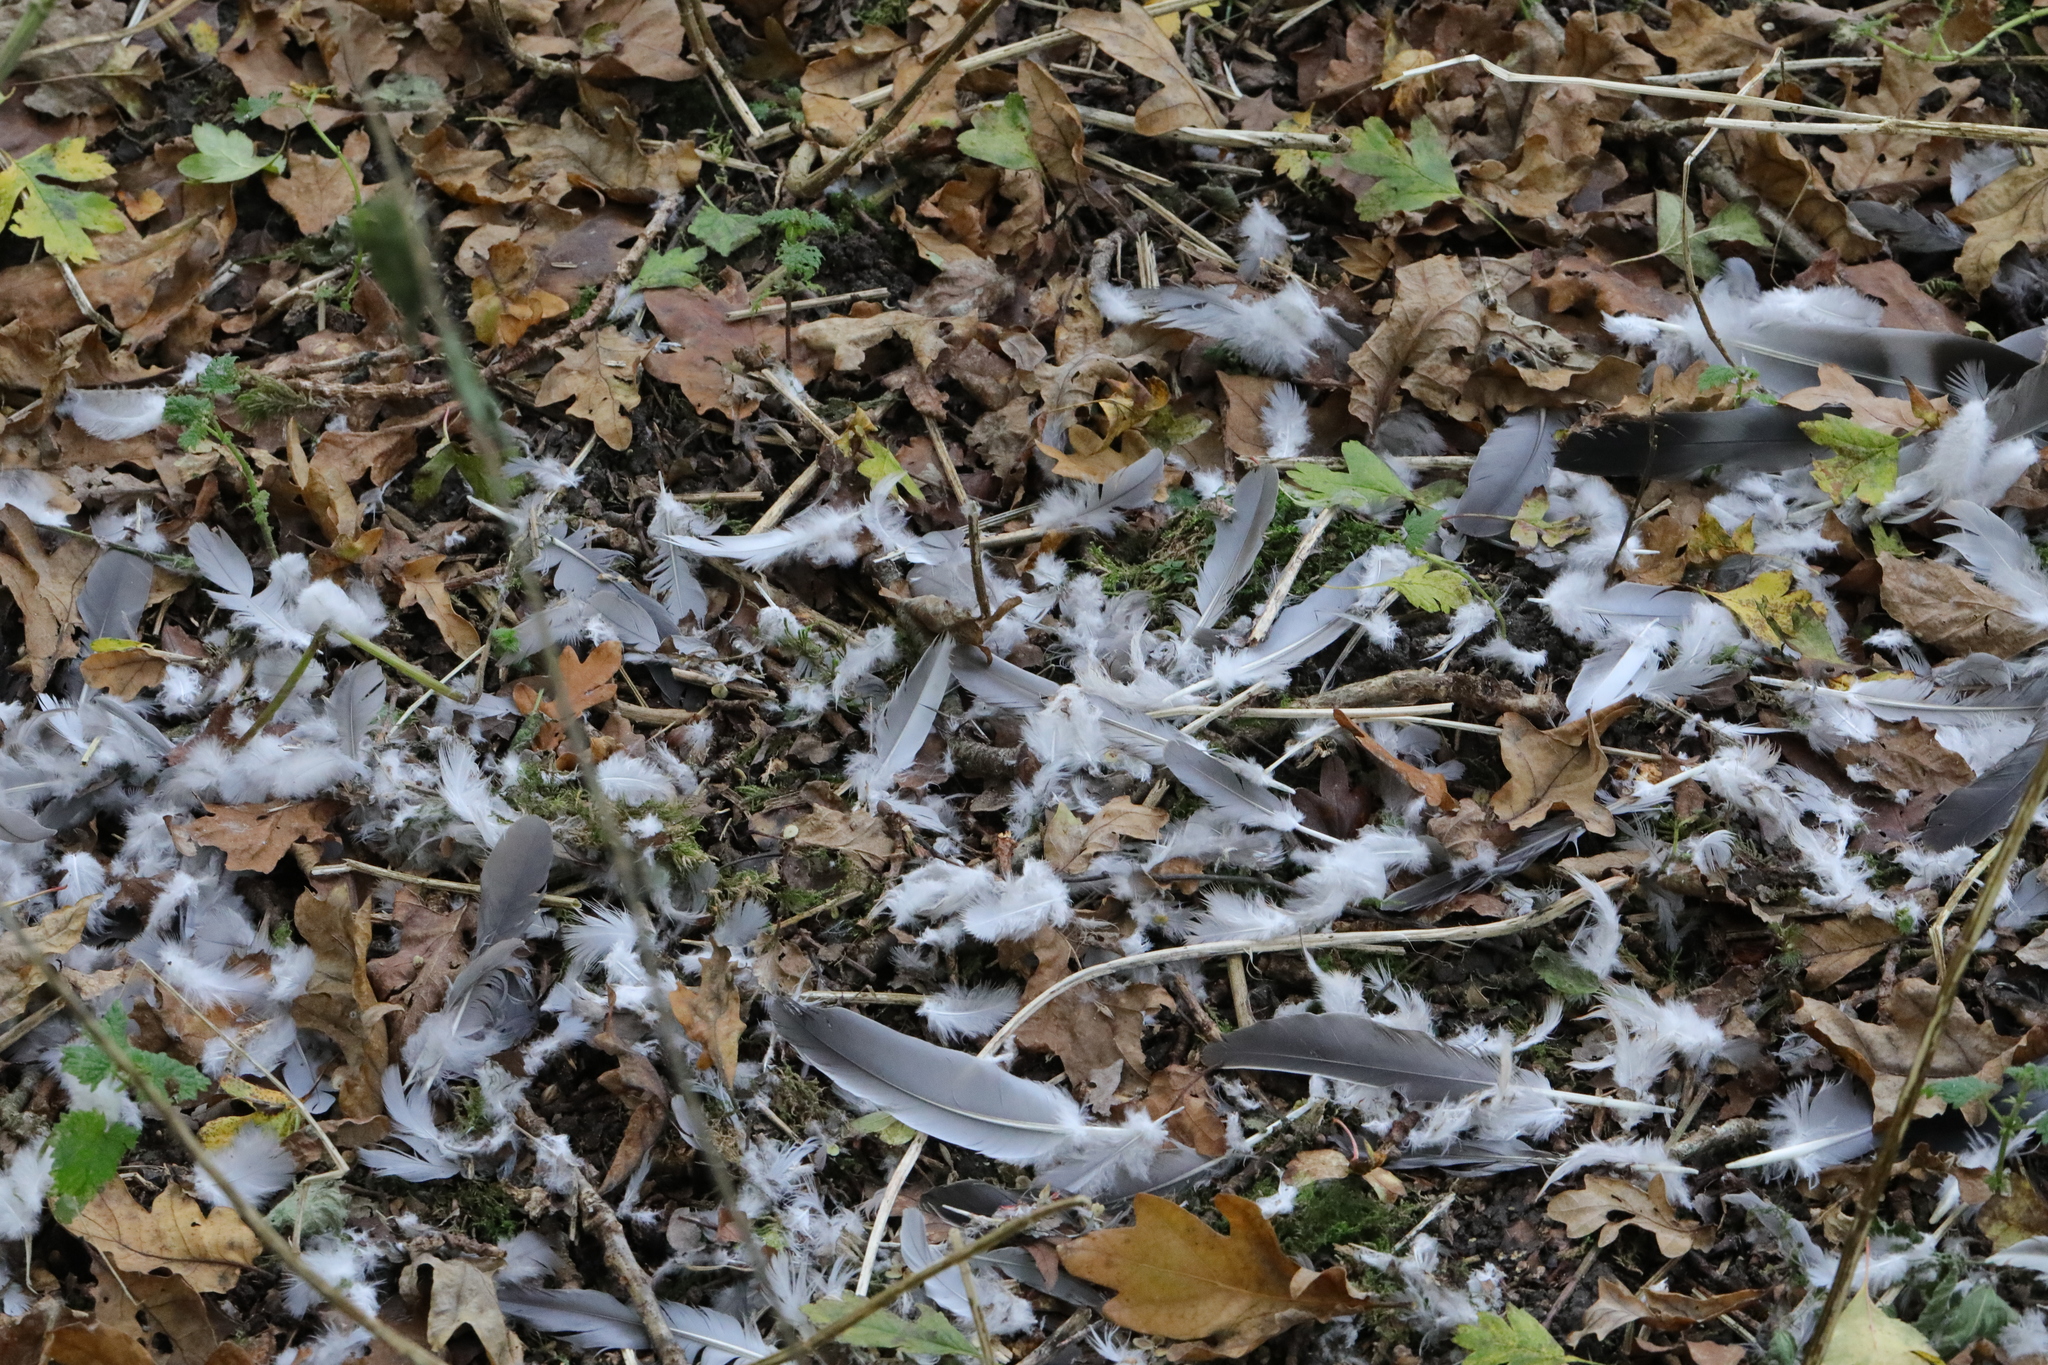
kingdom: Animalia
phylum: Chordata
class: Aves
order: Columbiformes
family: Columbidae
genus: Columba
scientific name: Columba palumbus
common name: Common wood pigeon
